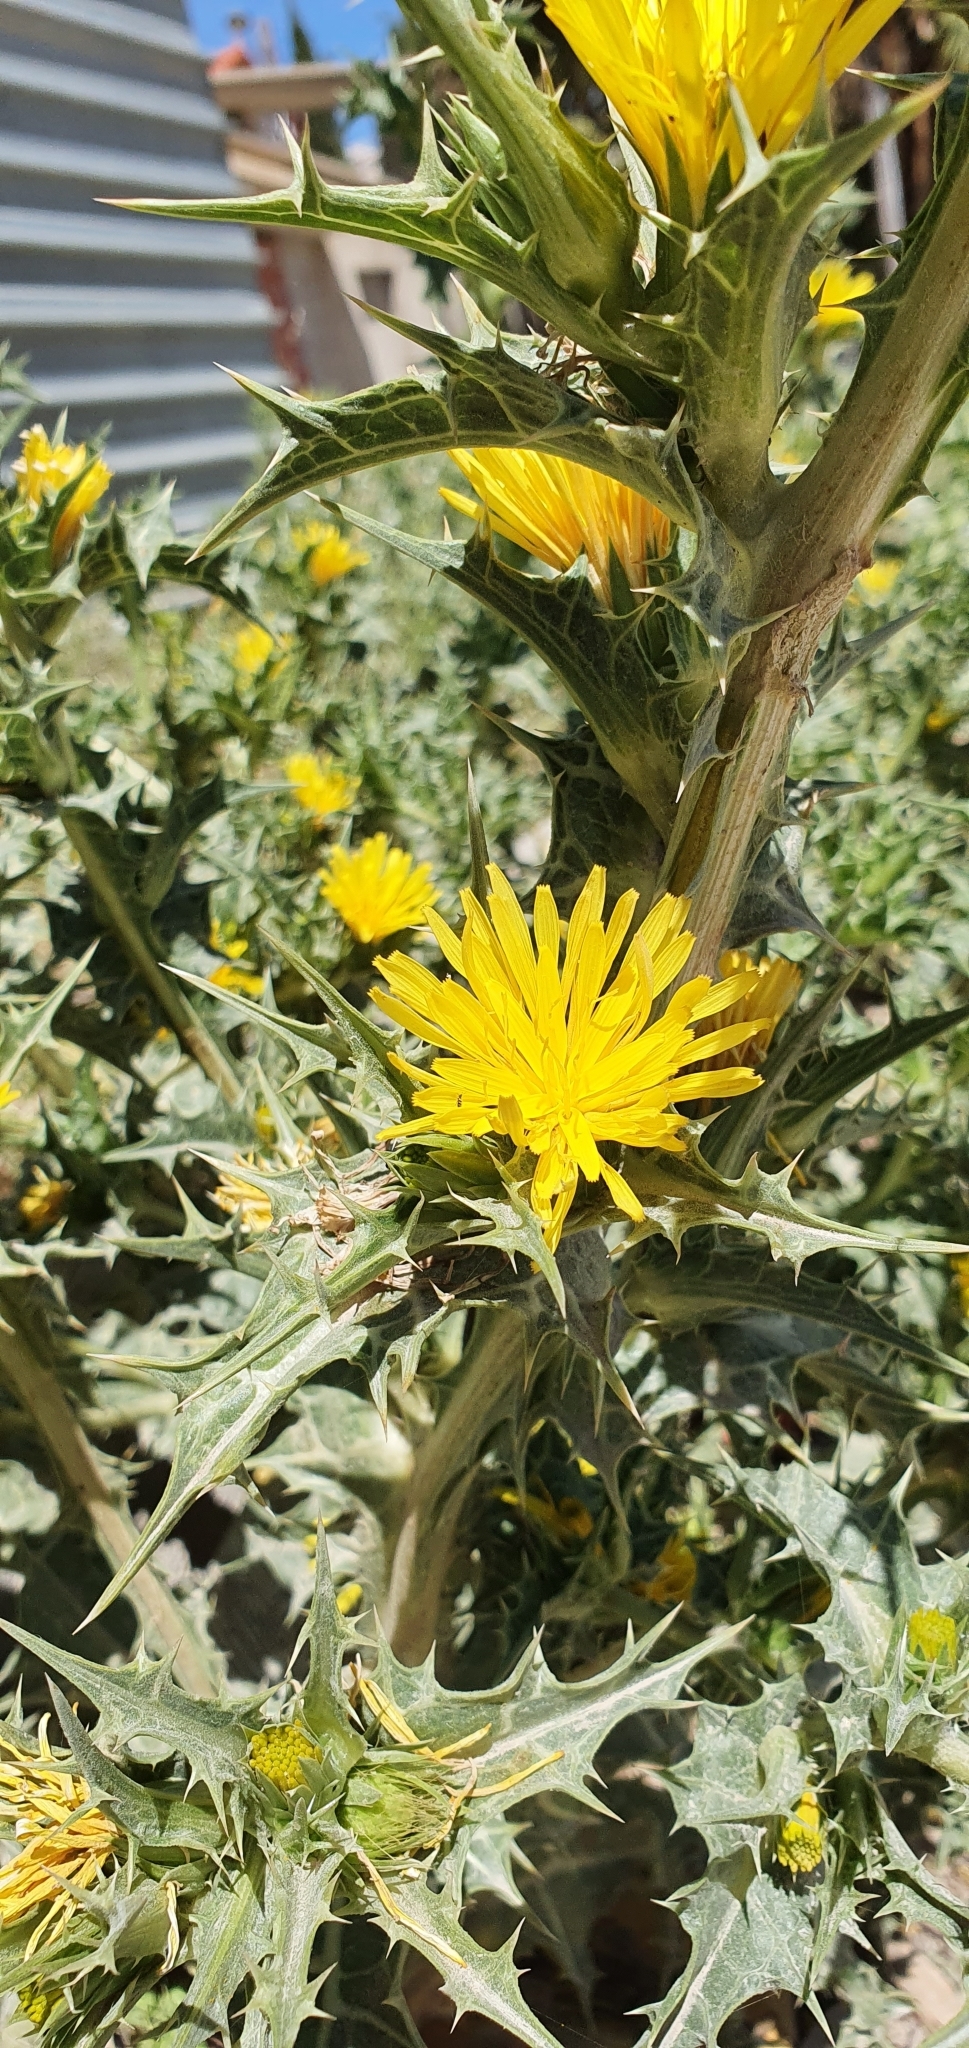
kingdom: Plantae
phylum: Tracheophyta
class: Magnoliopsida
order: Asterales
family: Asteraceae
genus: Scolymus
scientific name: Scolymus hispanicus
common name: Golden thistle
